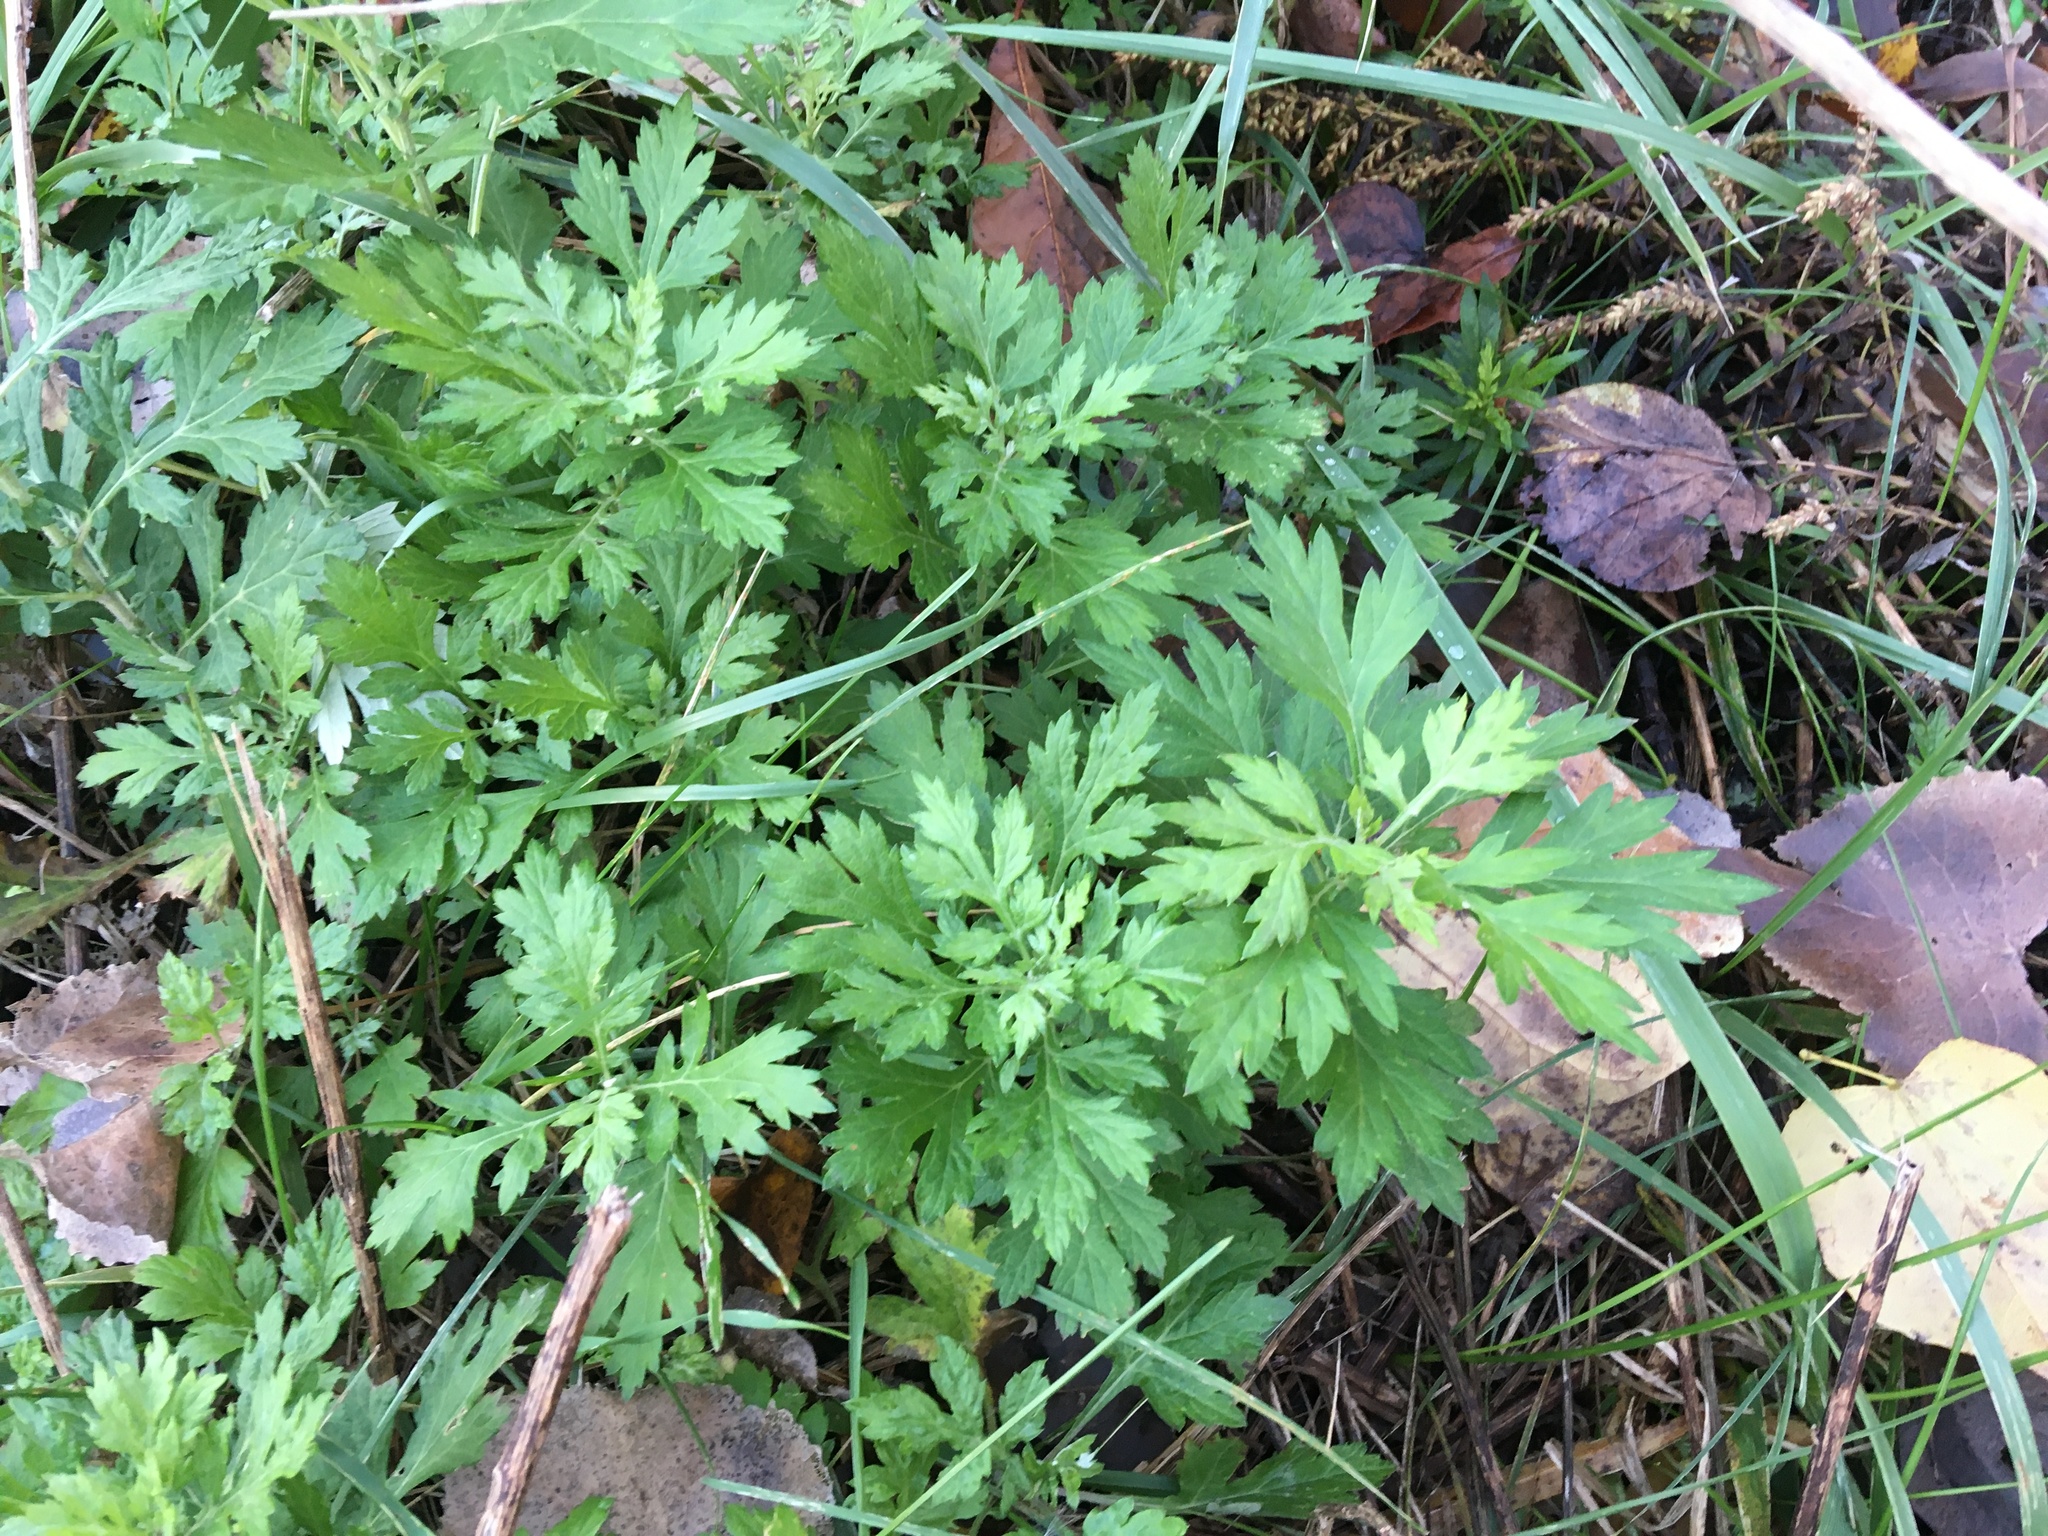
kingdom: Plantae
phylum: Tracheophyta
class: Magnoliopsida
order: Asterales
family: Asteraceae
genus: Artemisia
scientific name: Artemisia vulgaris
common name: Mugwort
